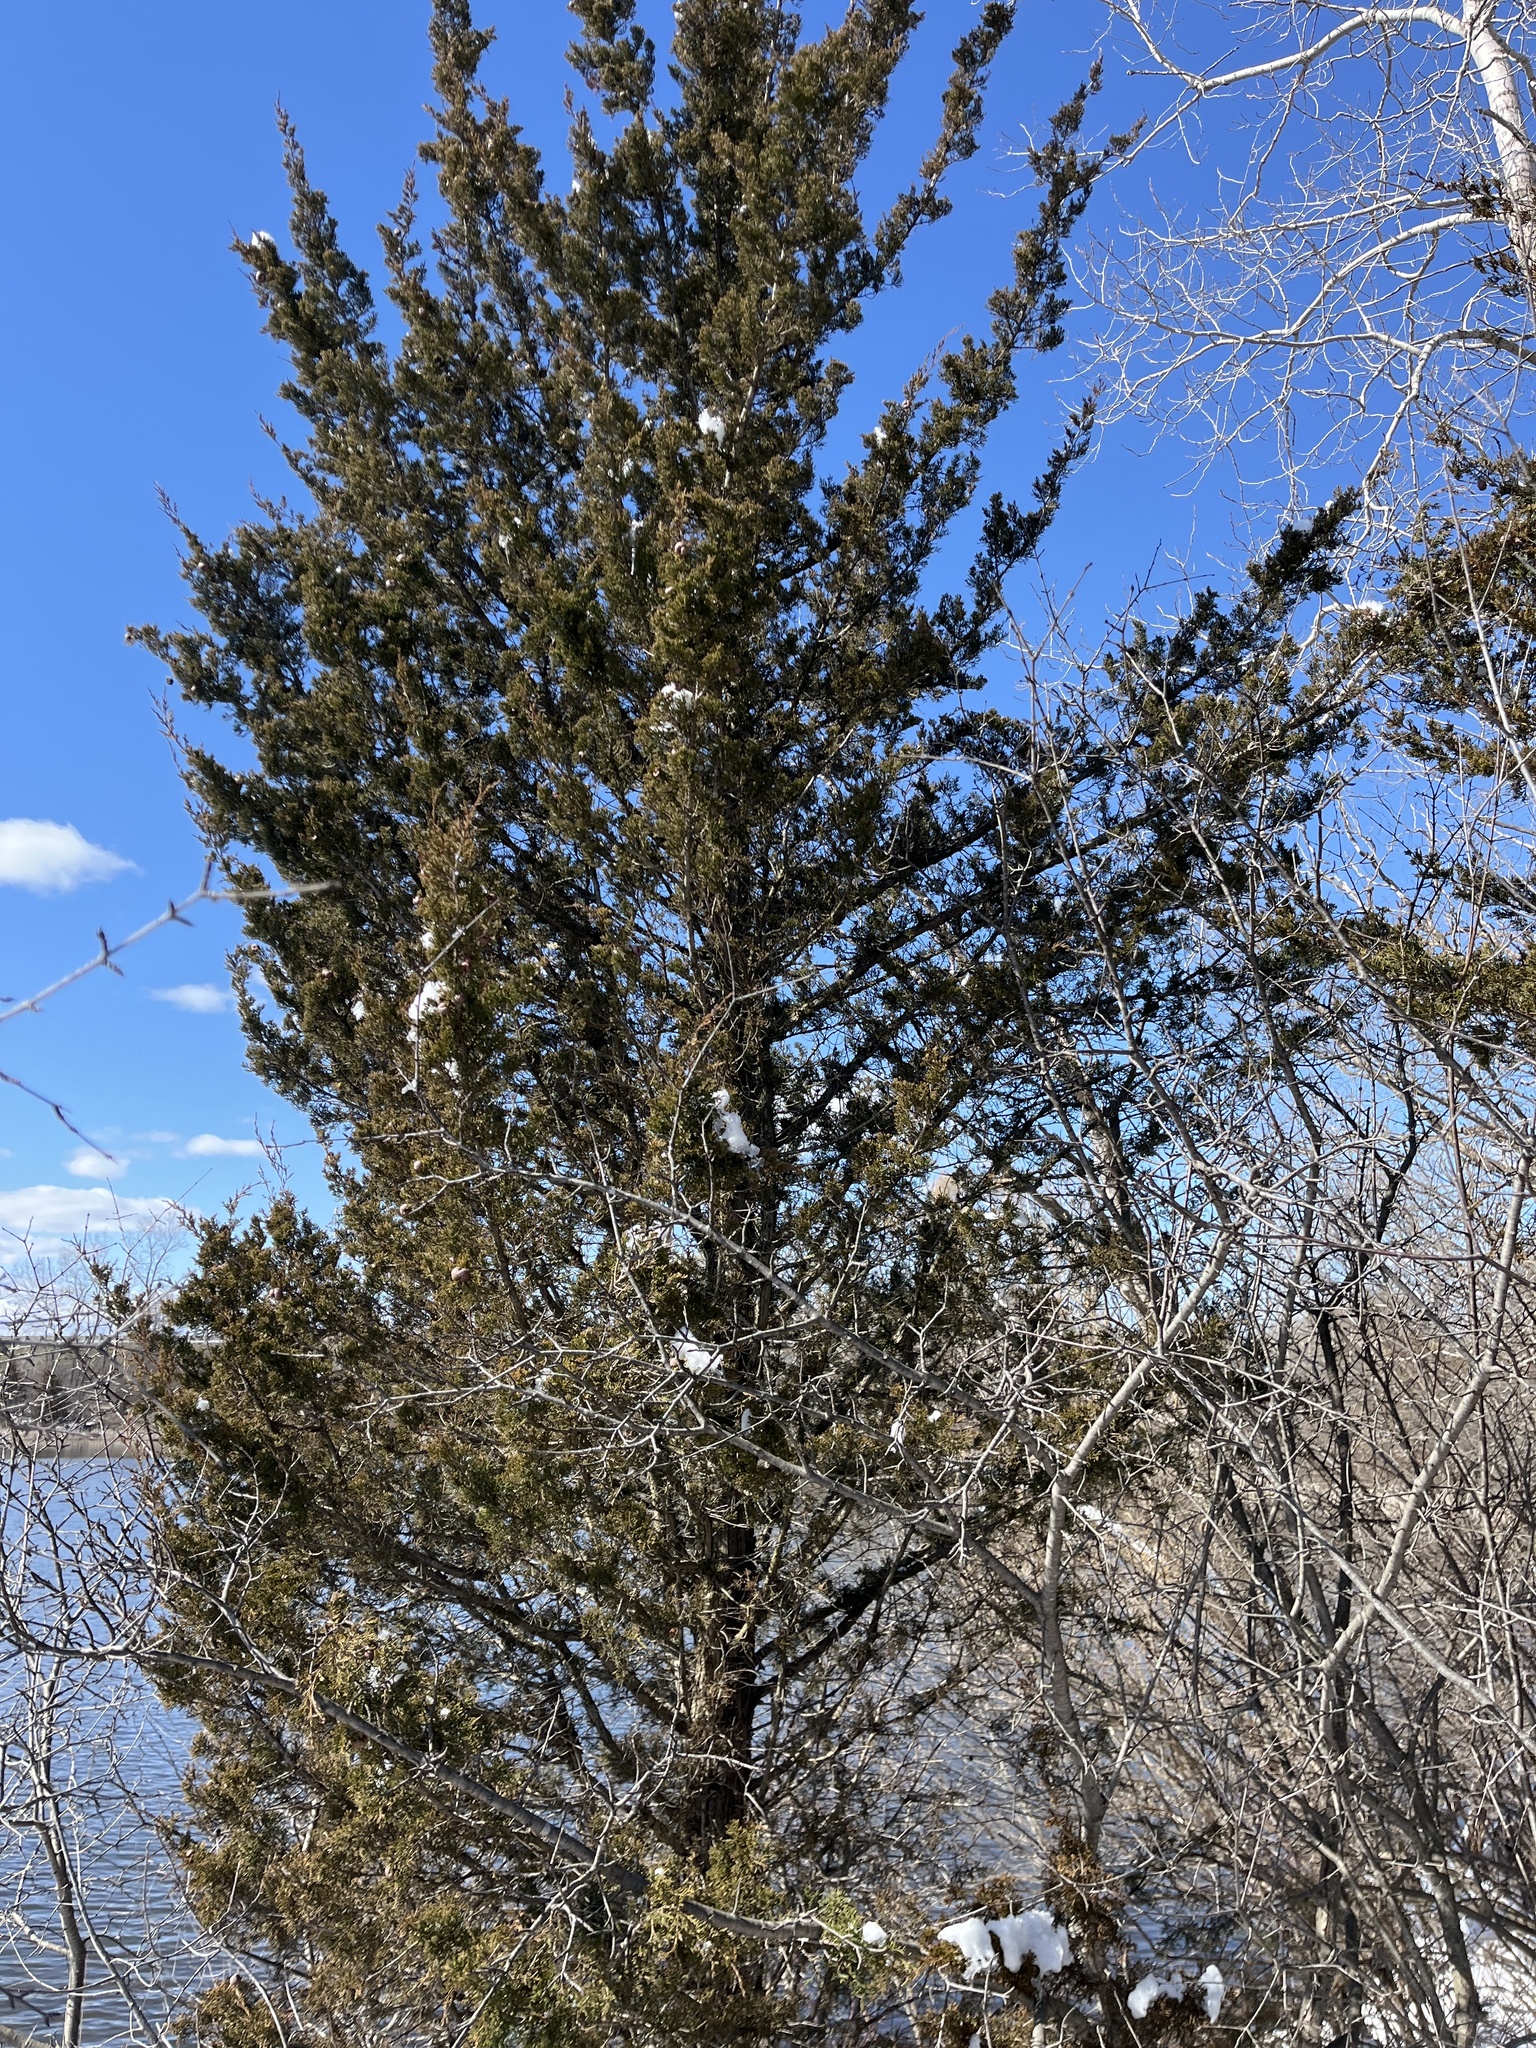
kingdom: Plantae
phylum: Tracheophyta
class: Pinopsida
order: Pinales
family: Cupressaceae
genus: Juniperus
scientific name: Juniperus virginiana
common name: Red juniper
